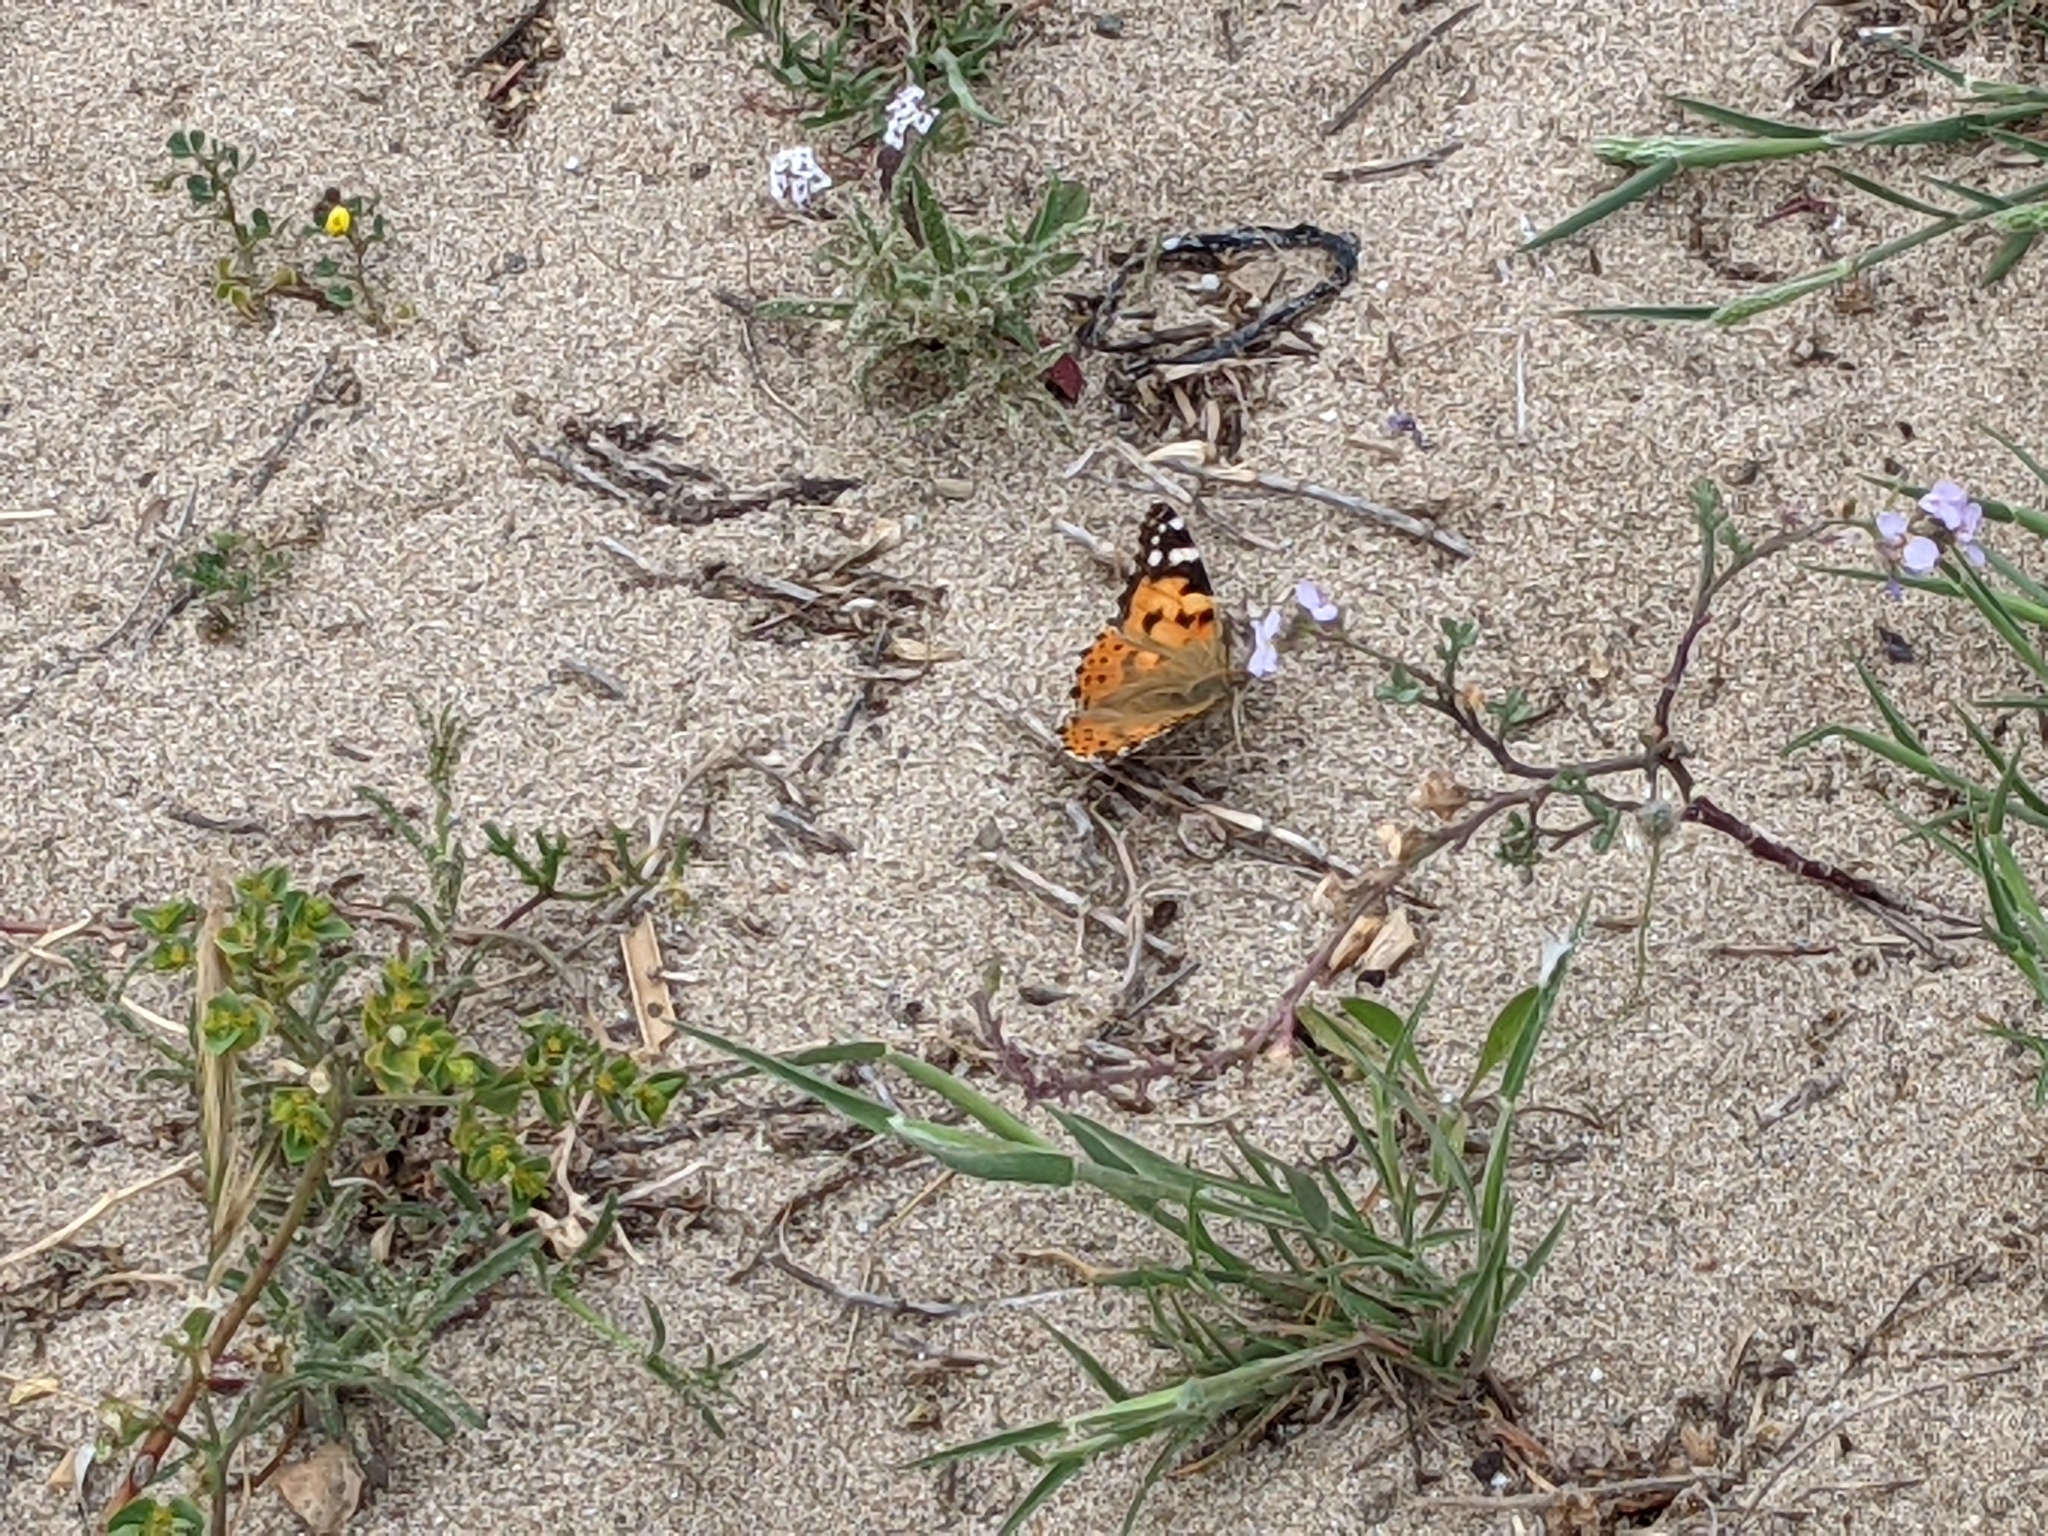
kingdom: Animalia
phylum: Arthropoda
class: Insecta
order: Lepidoptera
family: Nymphalidae
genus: Vanessa
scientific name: Vanessa cardui
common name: Painted lady
